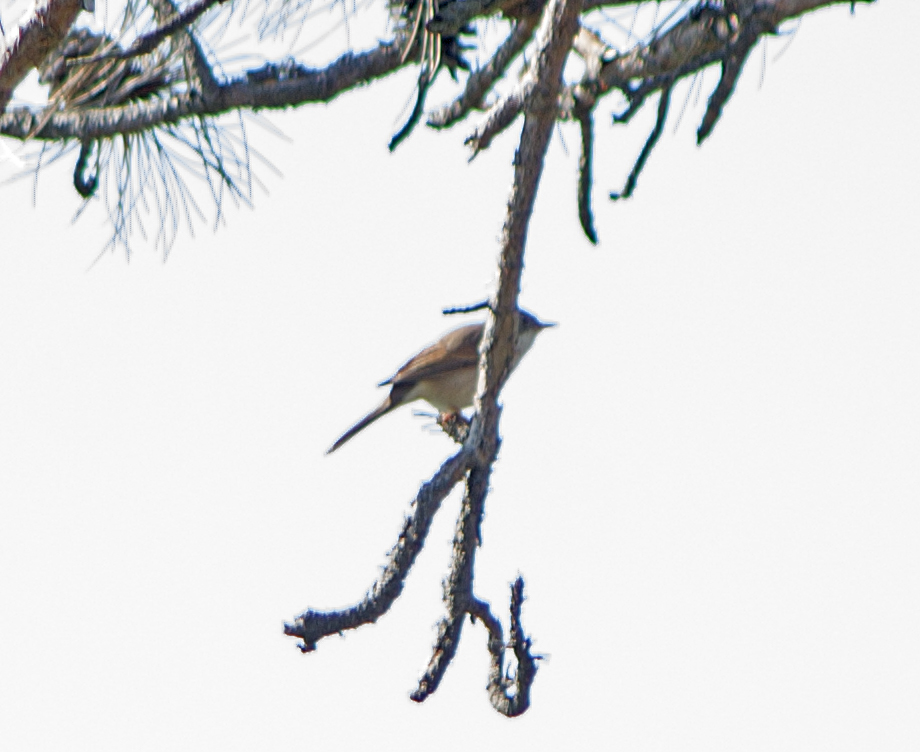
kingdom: Animalia
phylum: Chordata
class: Aves
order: Passeriformes
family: Sylviidae
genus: Sylvia
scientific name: Sylvia communis
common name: Common whitethroat
